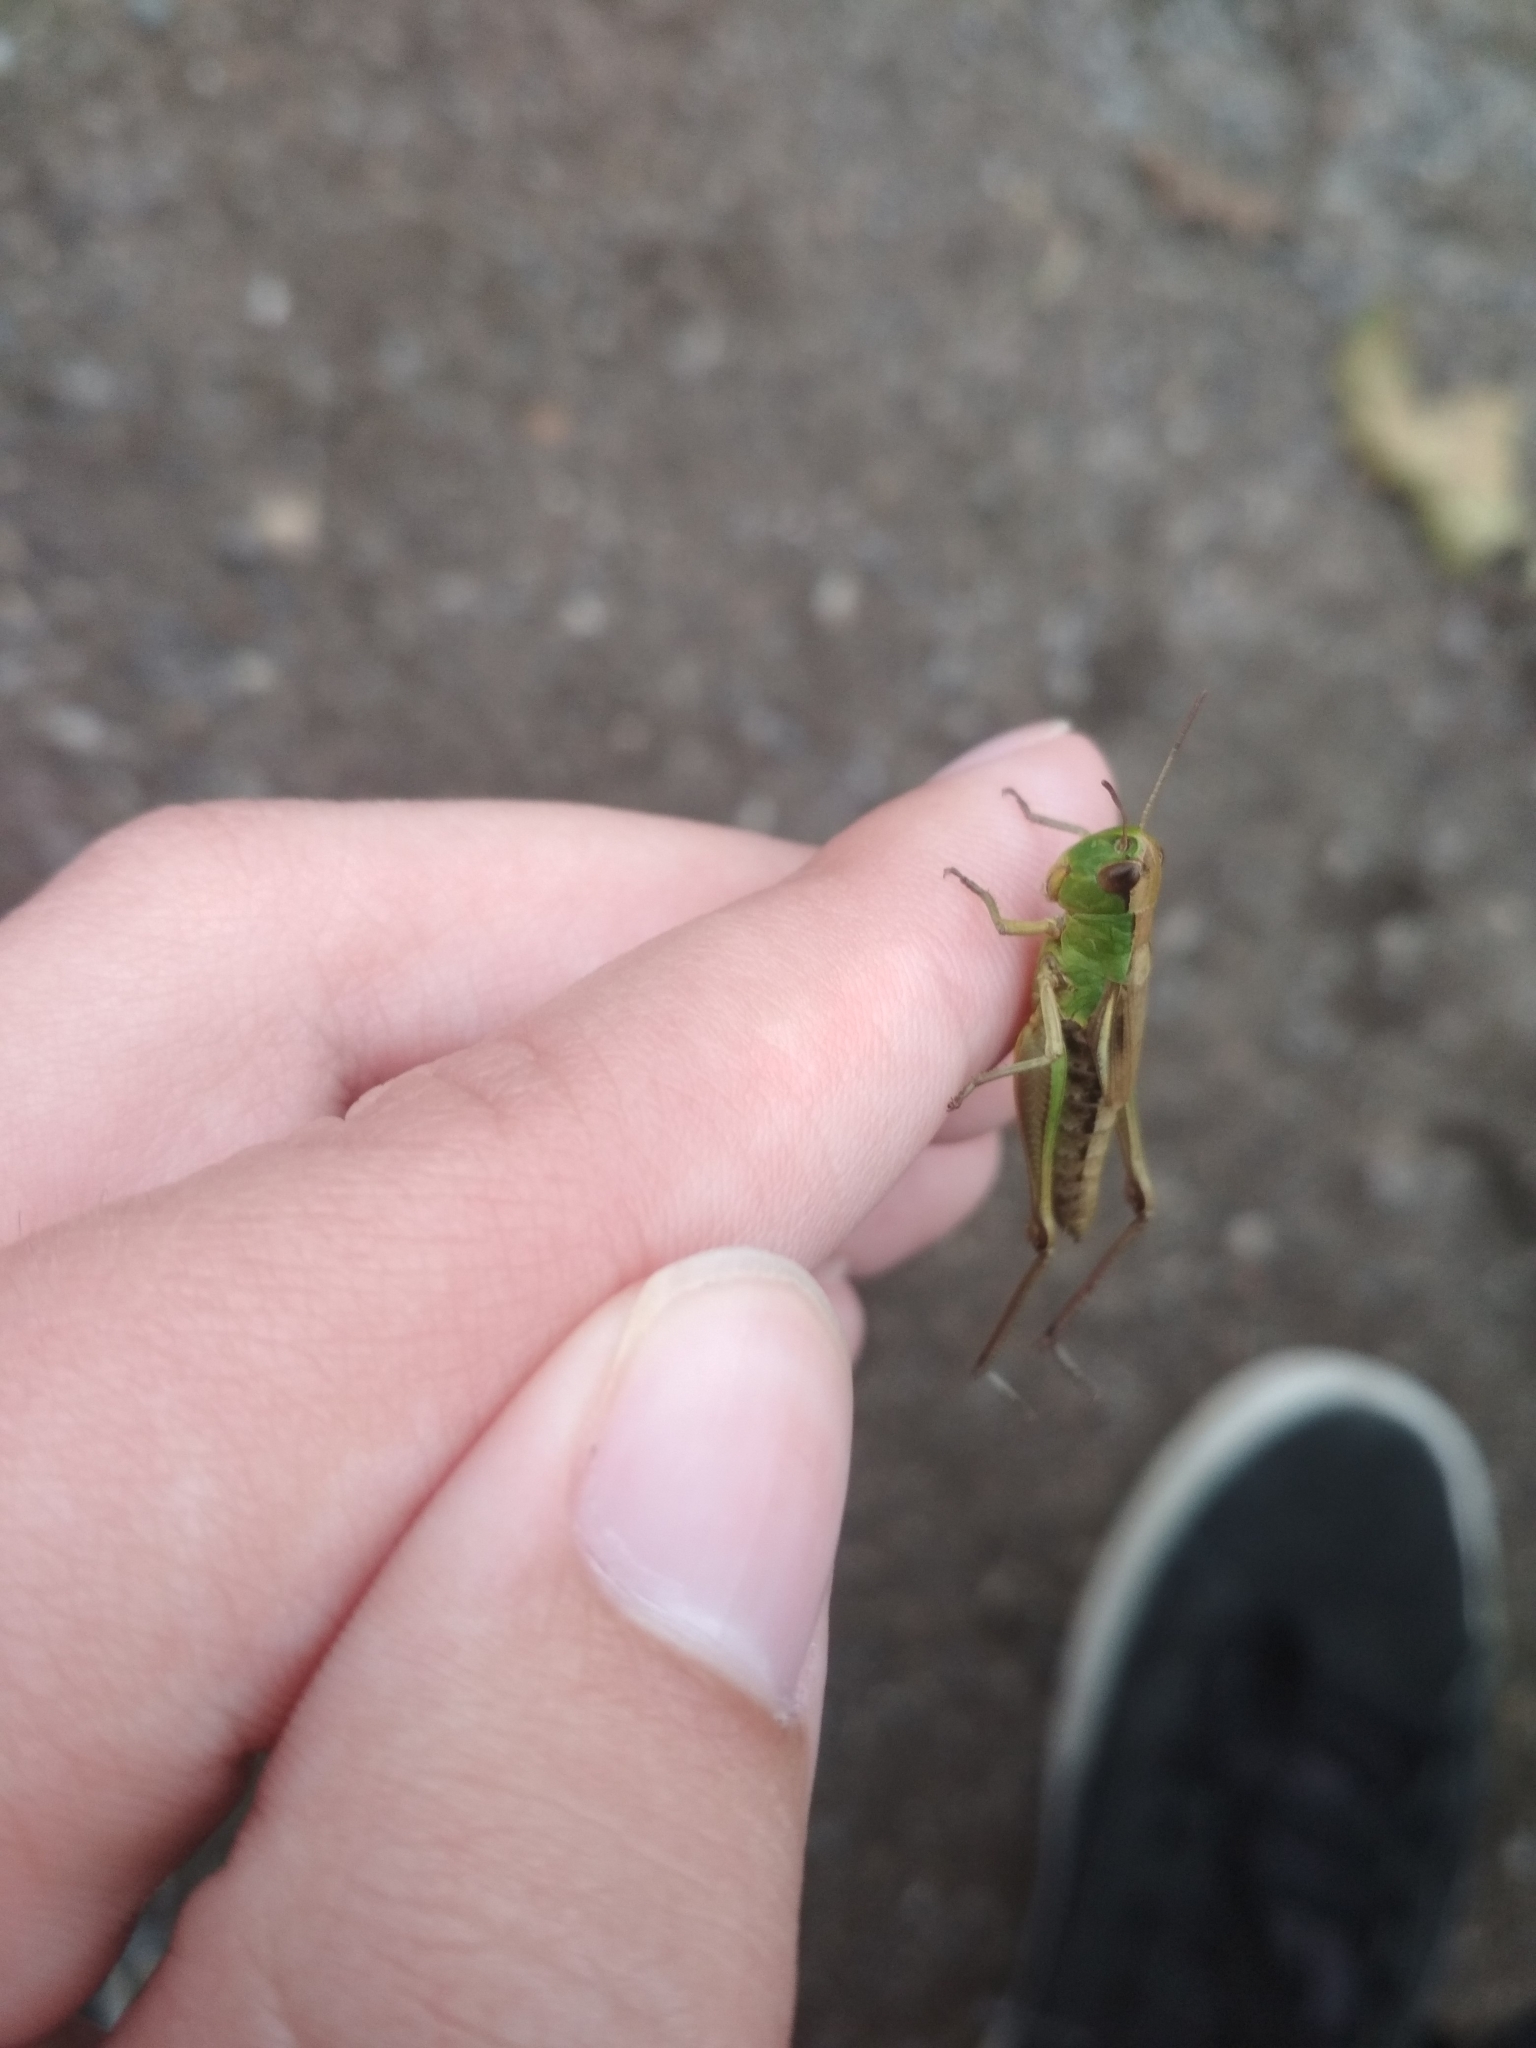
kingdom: Animalia
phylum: Arthropoda
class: Insecta
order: Orthoptera
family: Acrididae
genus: Pseudochorthippus
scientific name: Pseudochorthippus parallelus
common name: Meadow grasshopper
